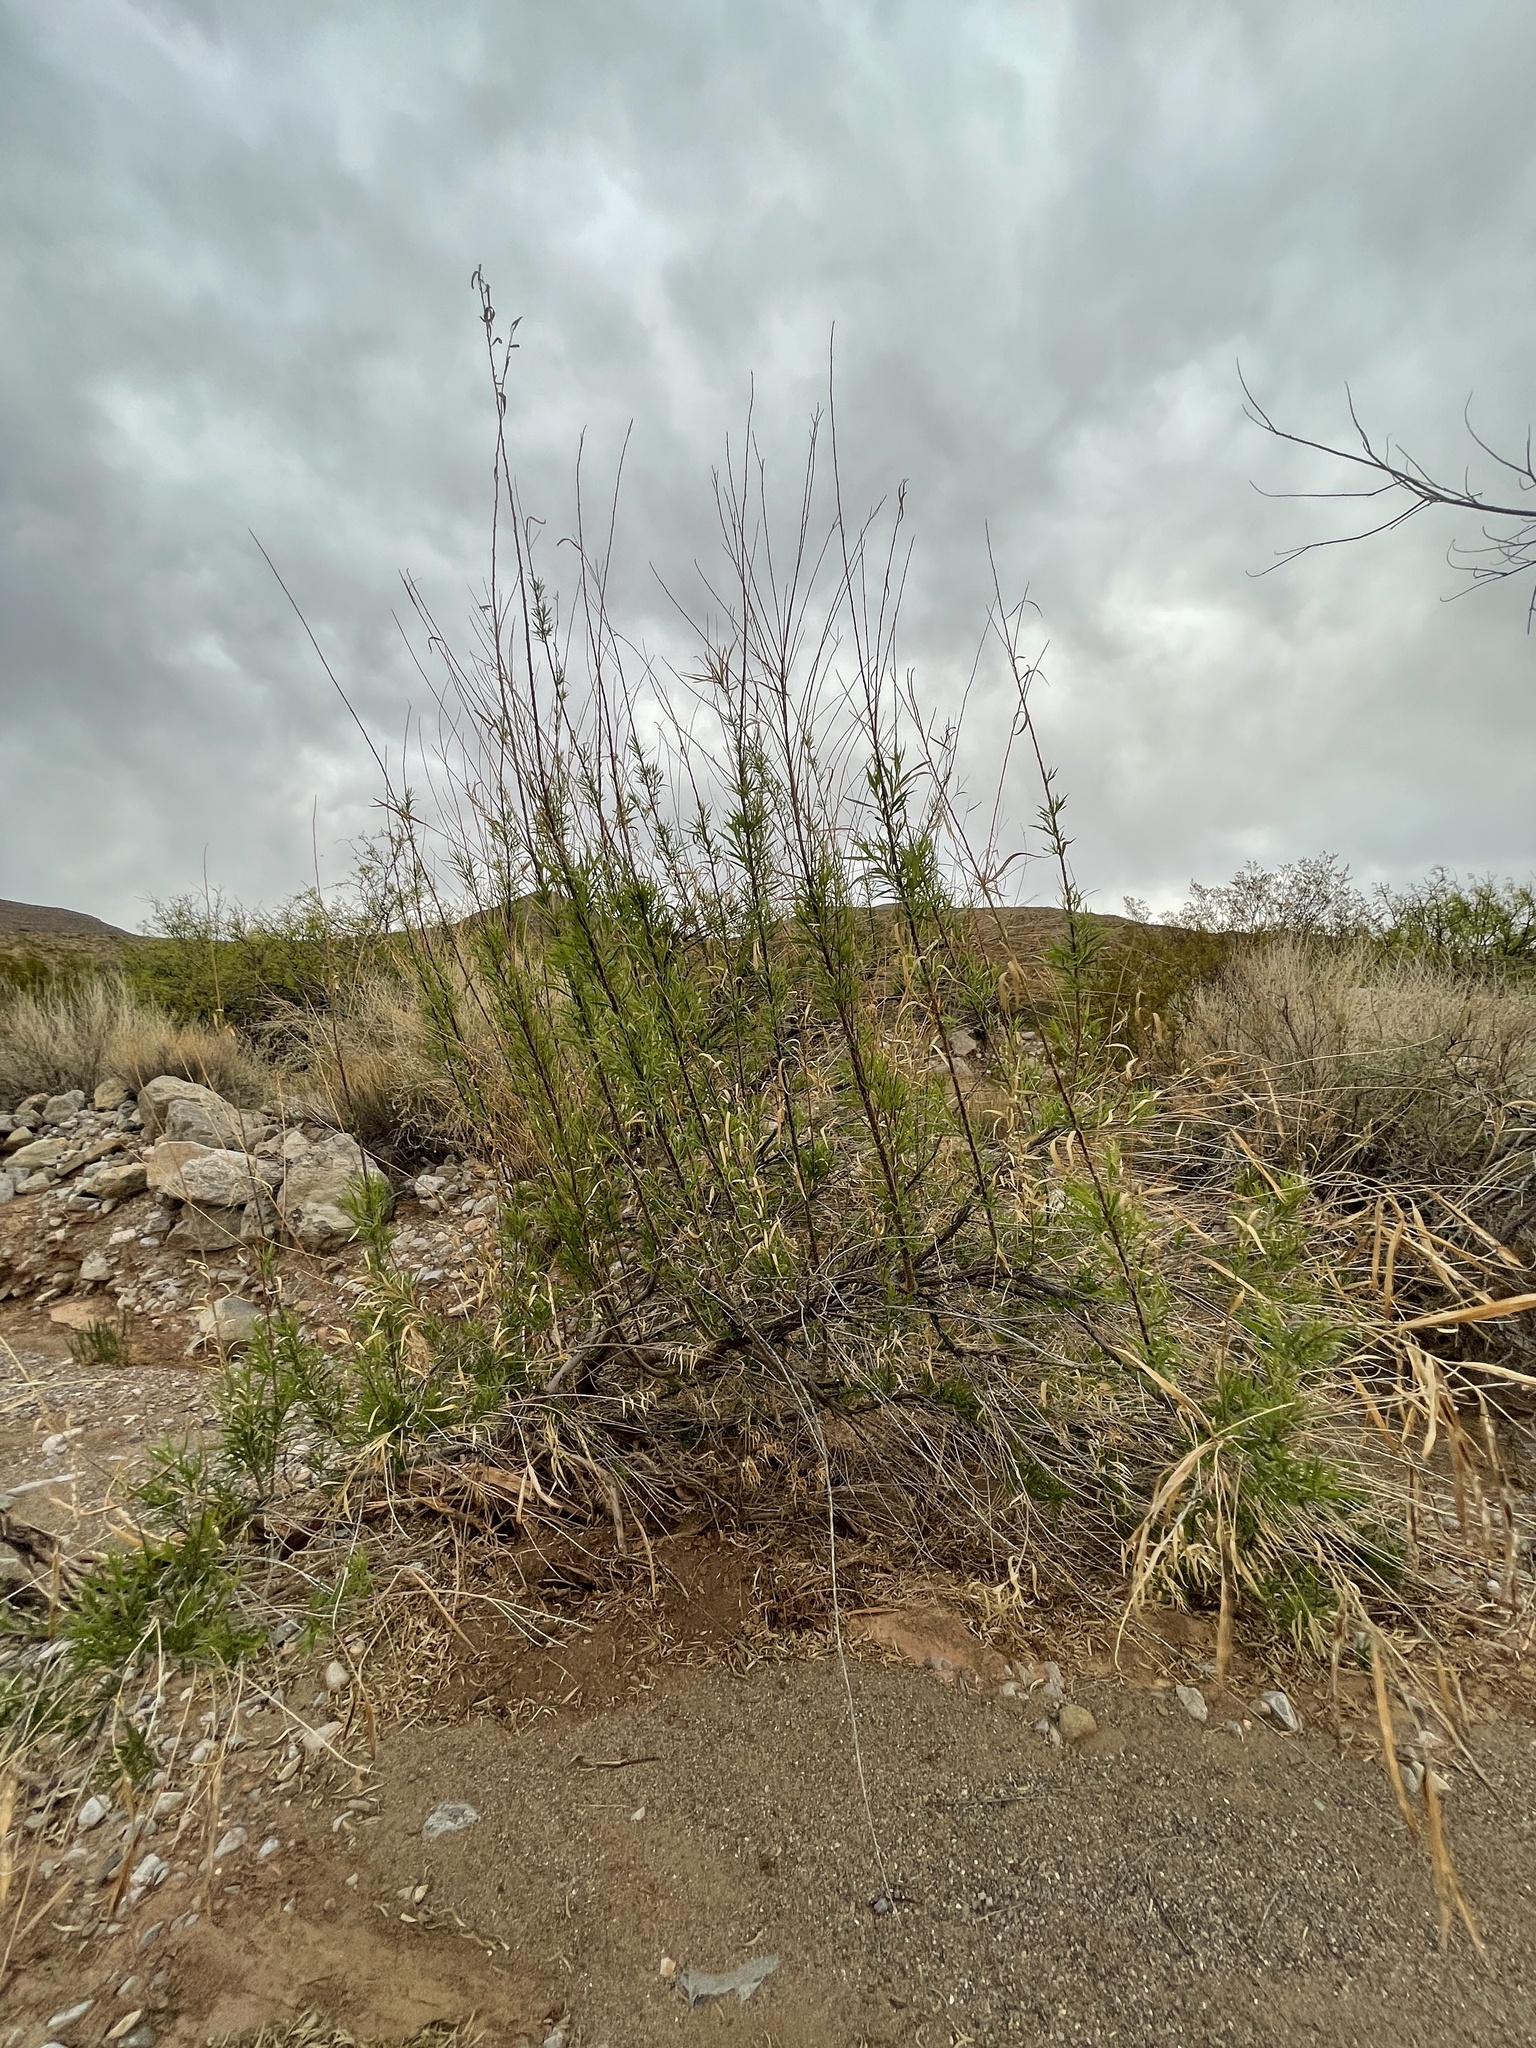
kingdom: Plantae
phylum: Tracheophyta
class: Magnoliopsida
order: Lamiales
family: Bignoniaceae
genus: Chilopsis
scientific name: Chilopsis linearis
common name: Desert-willow
